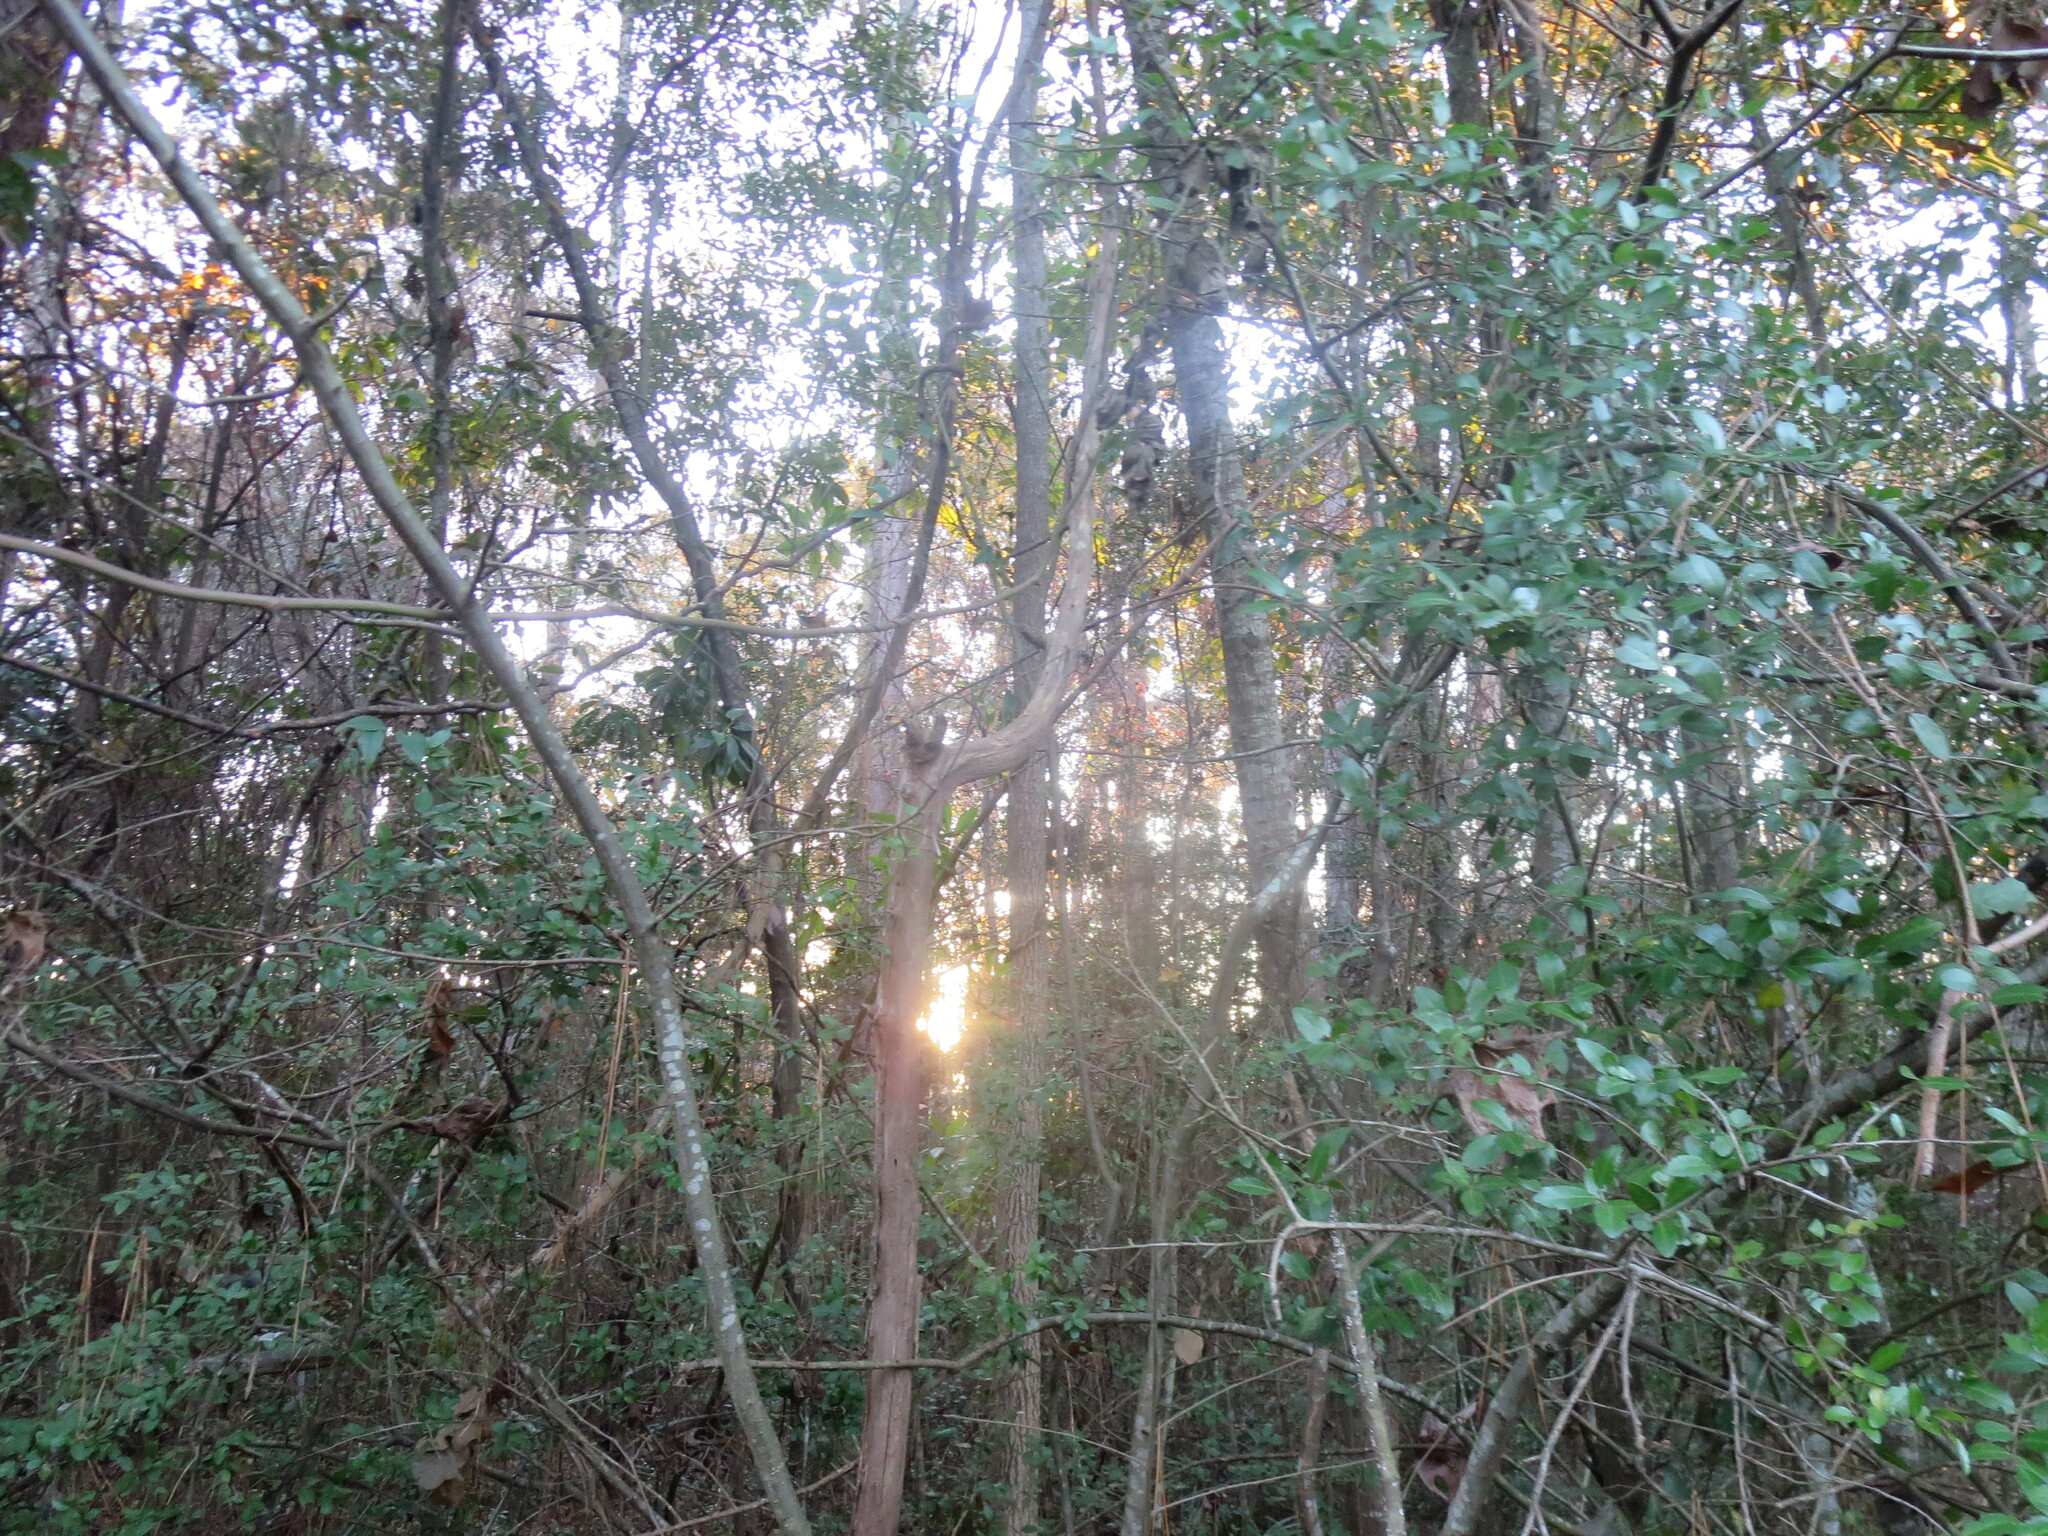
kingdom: Plantae
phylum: Tracheophyta
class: Magnoliopsida
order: Fagales
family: Fagaceae
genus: Castanea
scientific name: Castanea pumila
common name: Chinkapin
